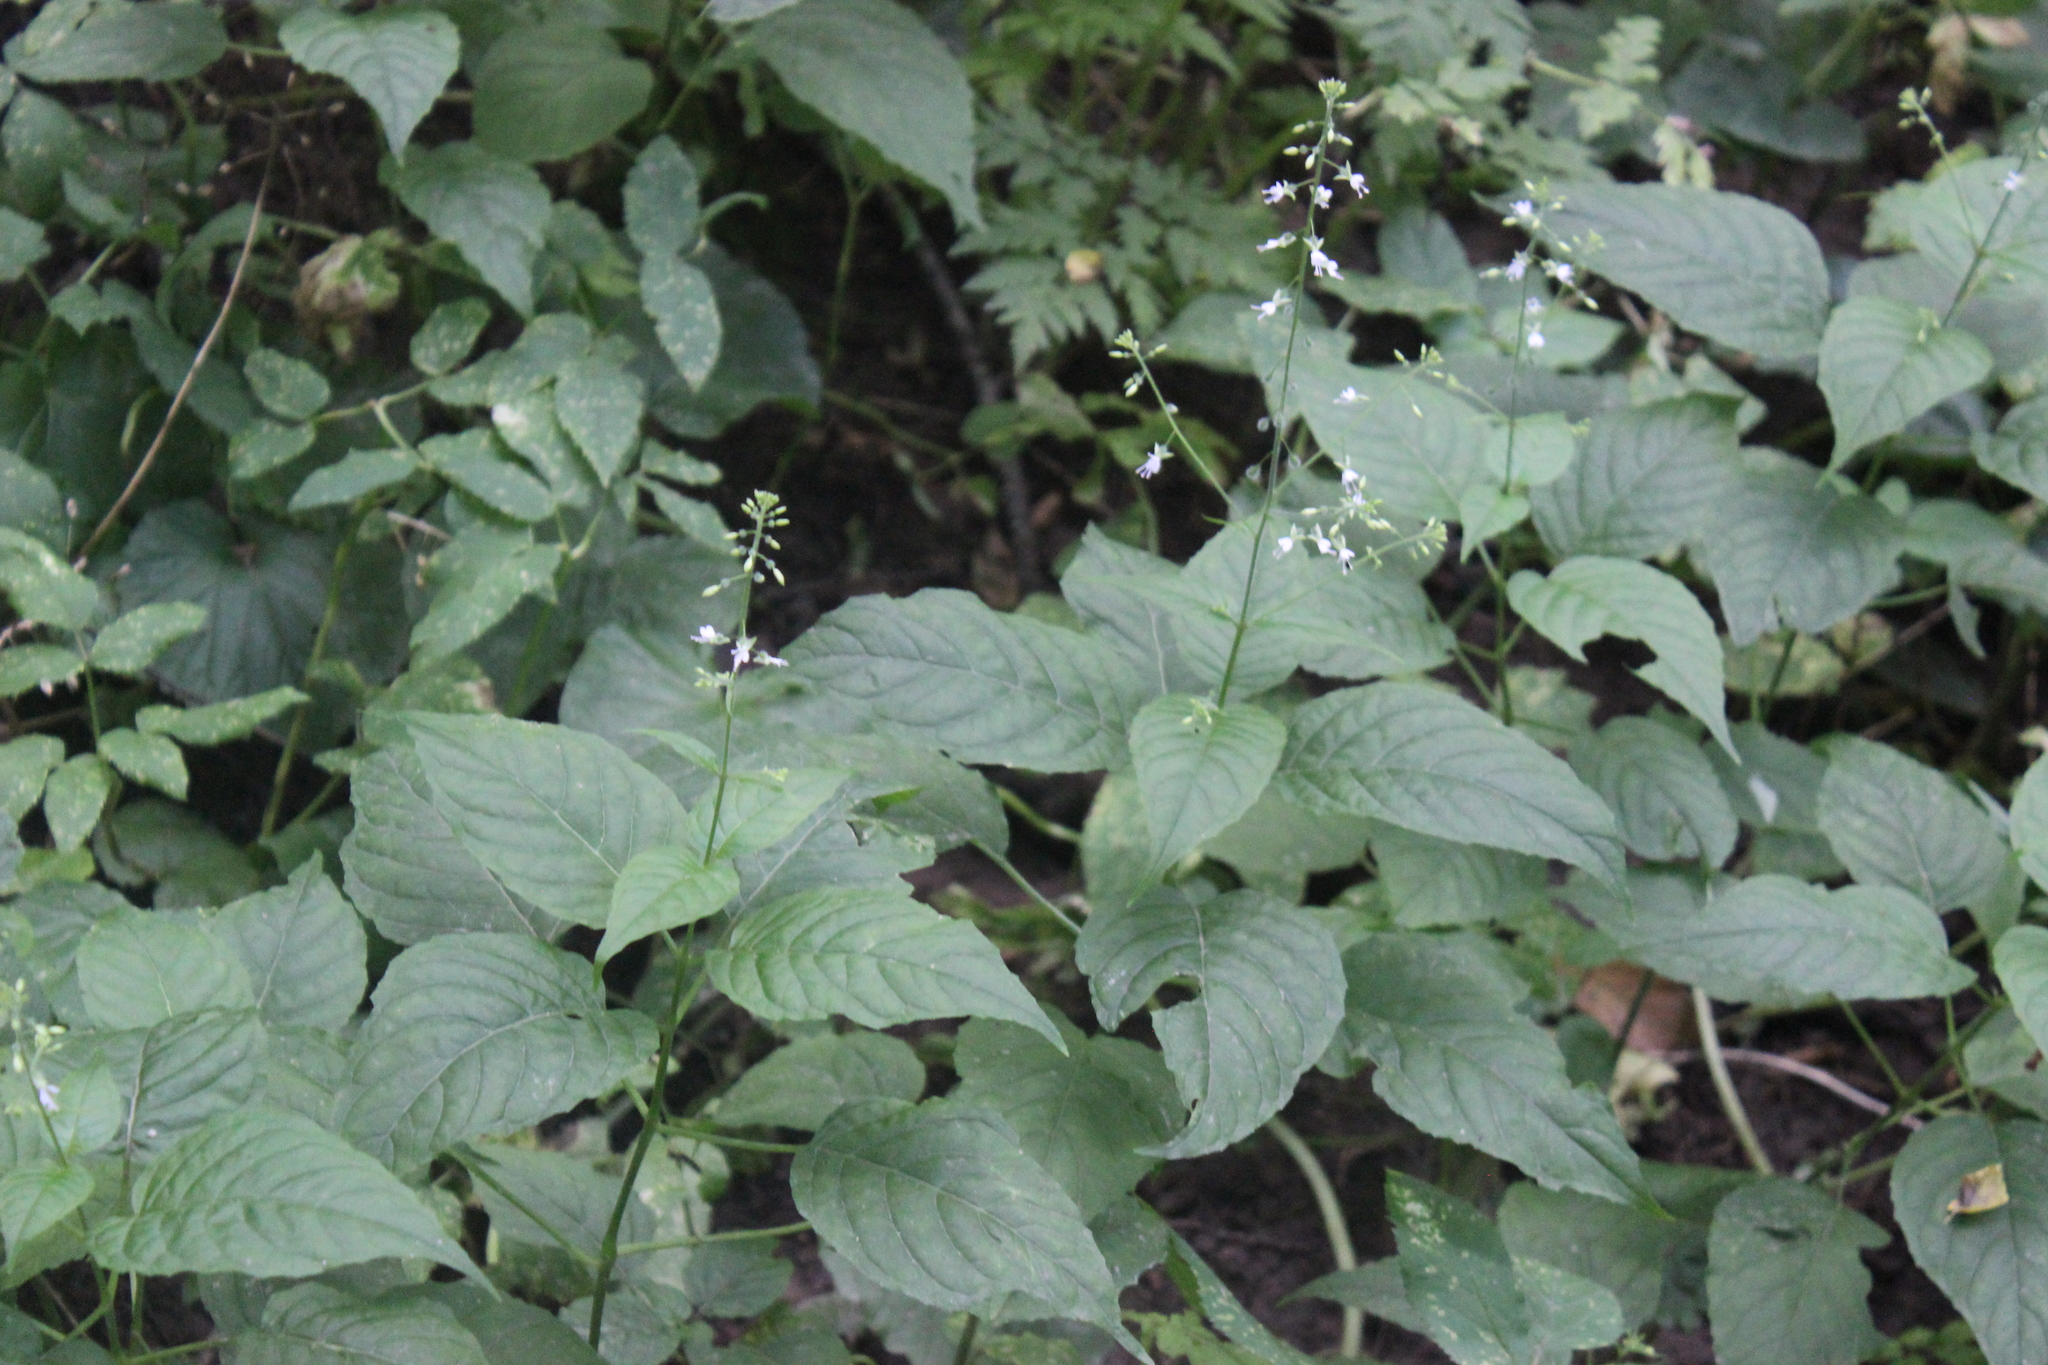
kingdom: Plantae
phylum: Tracheophyta
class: Magnoliopsida
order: Myrtales
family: Onagraceae
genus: Circaea
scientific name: Circaea lutetiana
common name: Enchanter's-nightshade
